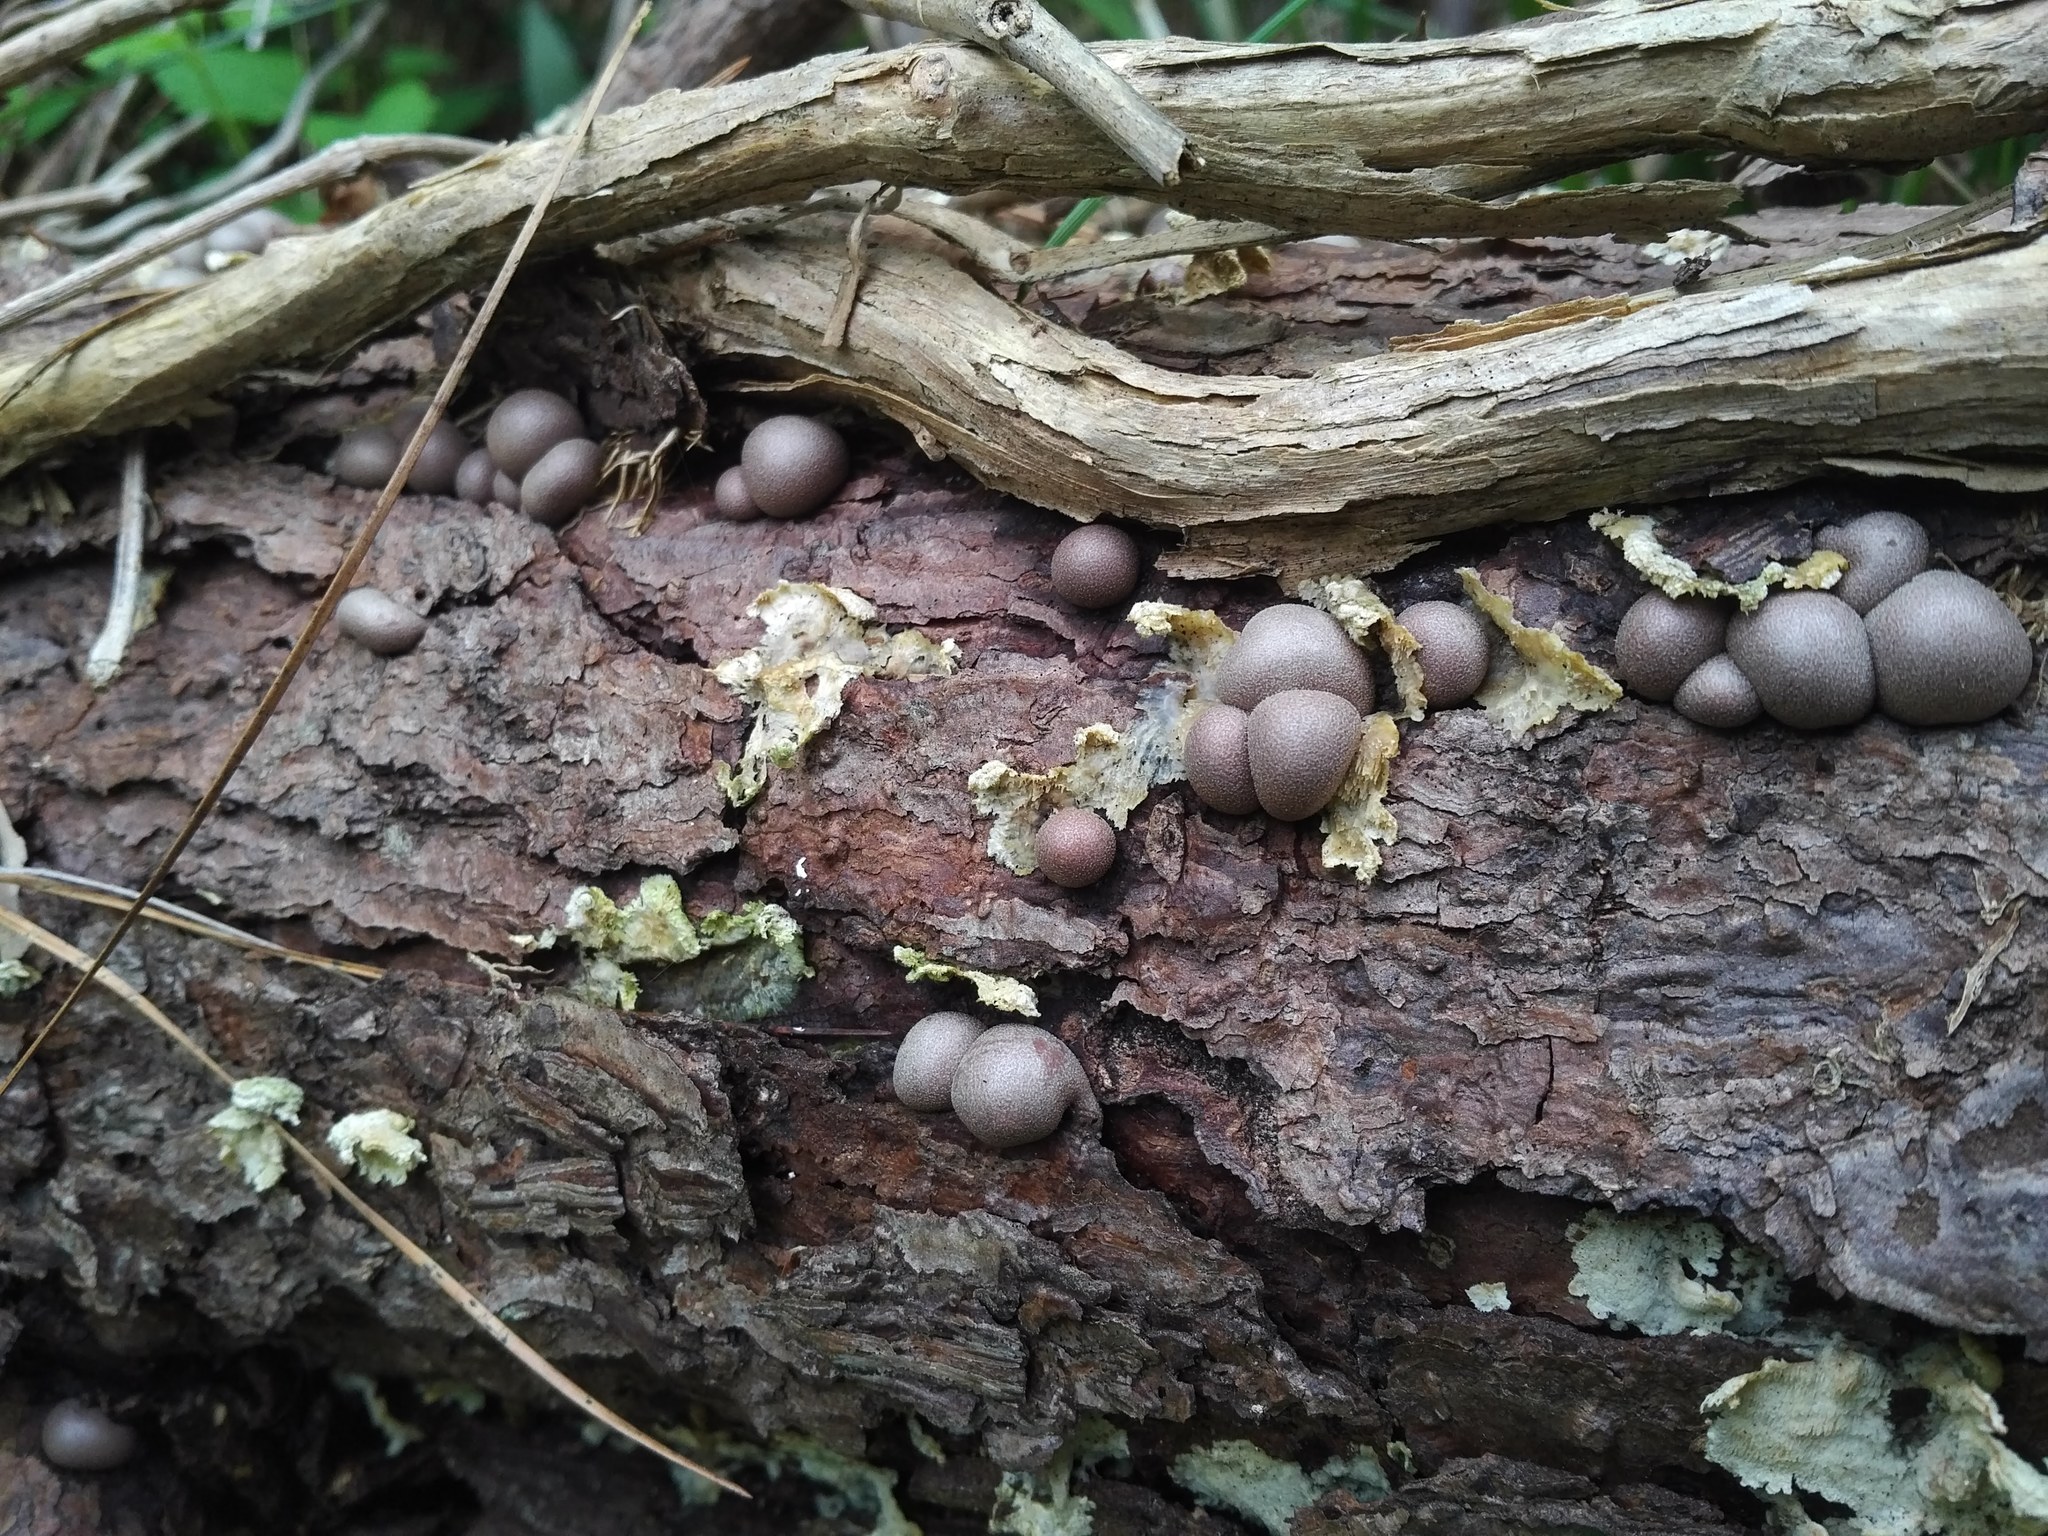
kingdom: Protozoa
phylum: Mycetozoa
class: Myxomycetes
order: Cribrariales
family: Tubiferaceae
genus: Lycogala
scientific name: Lycogala epidendrum
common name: Wolf's milk
